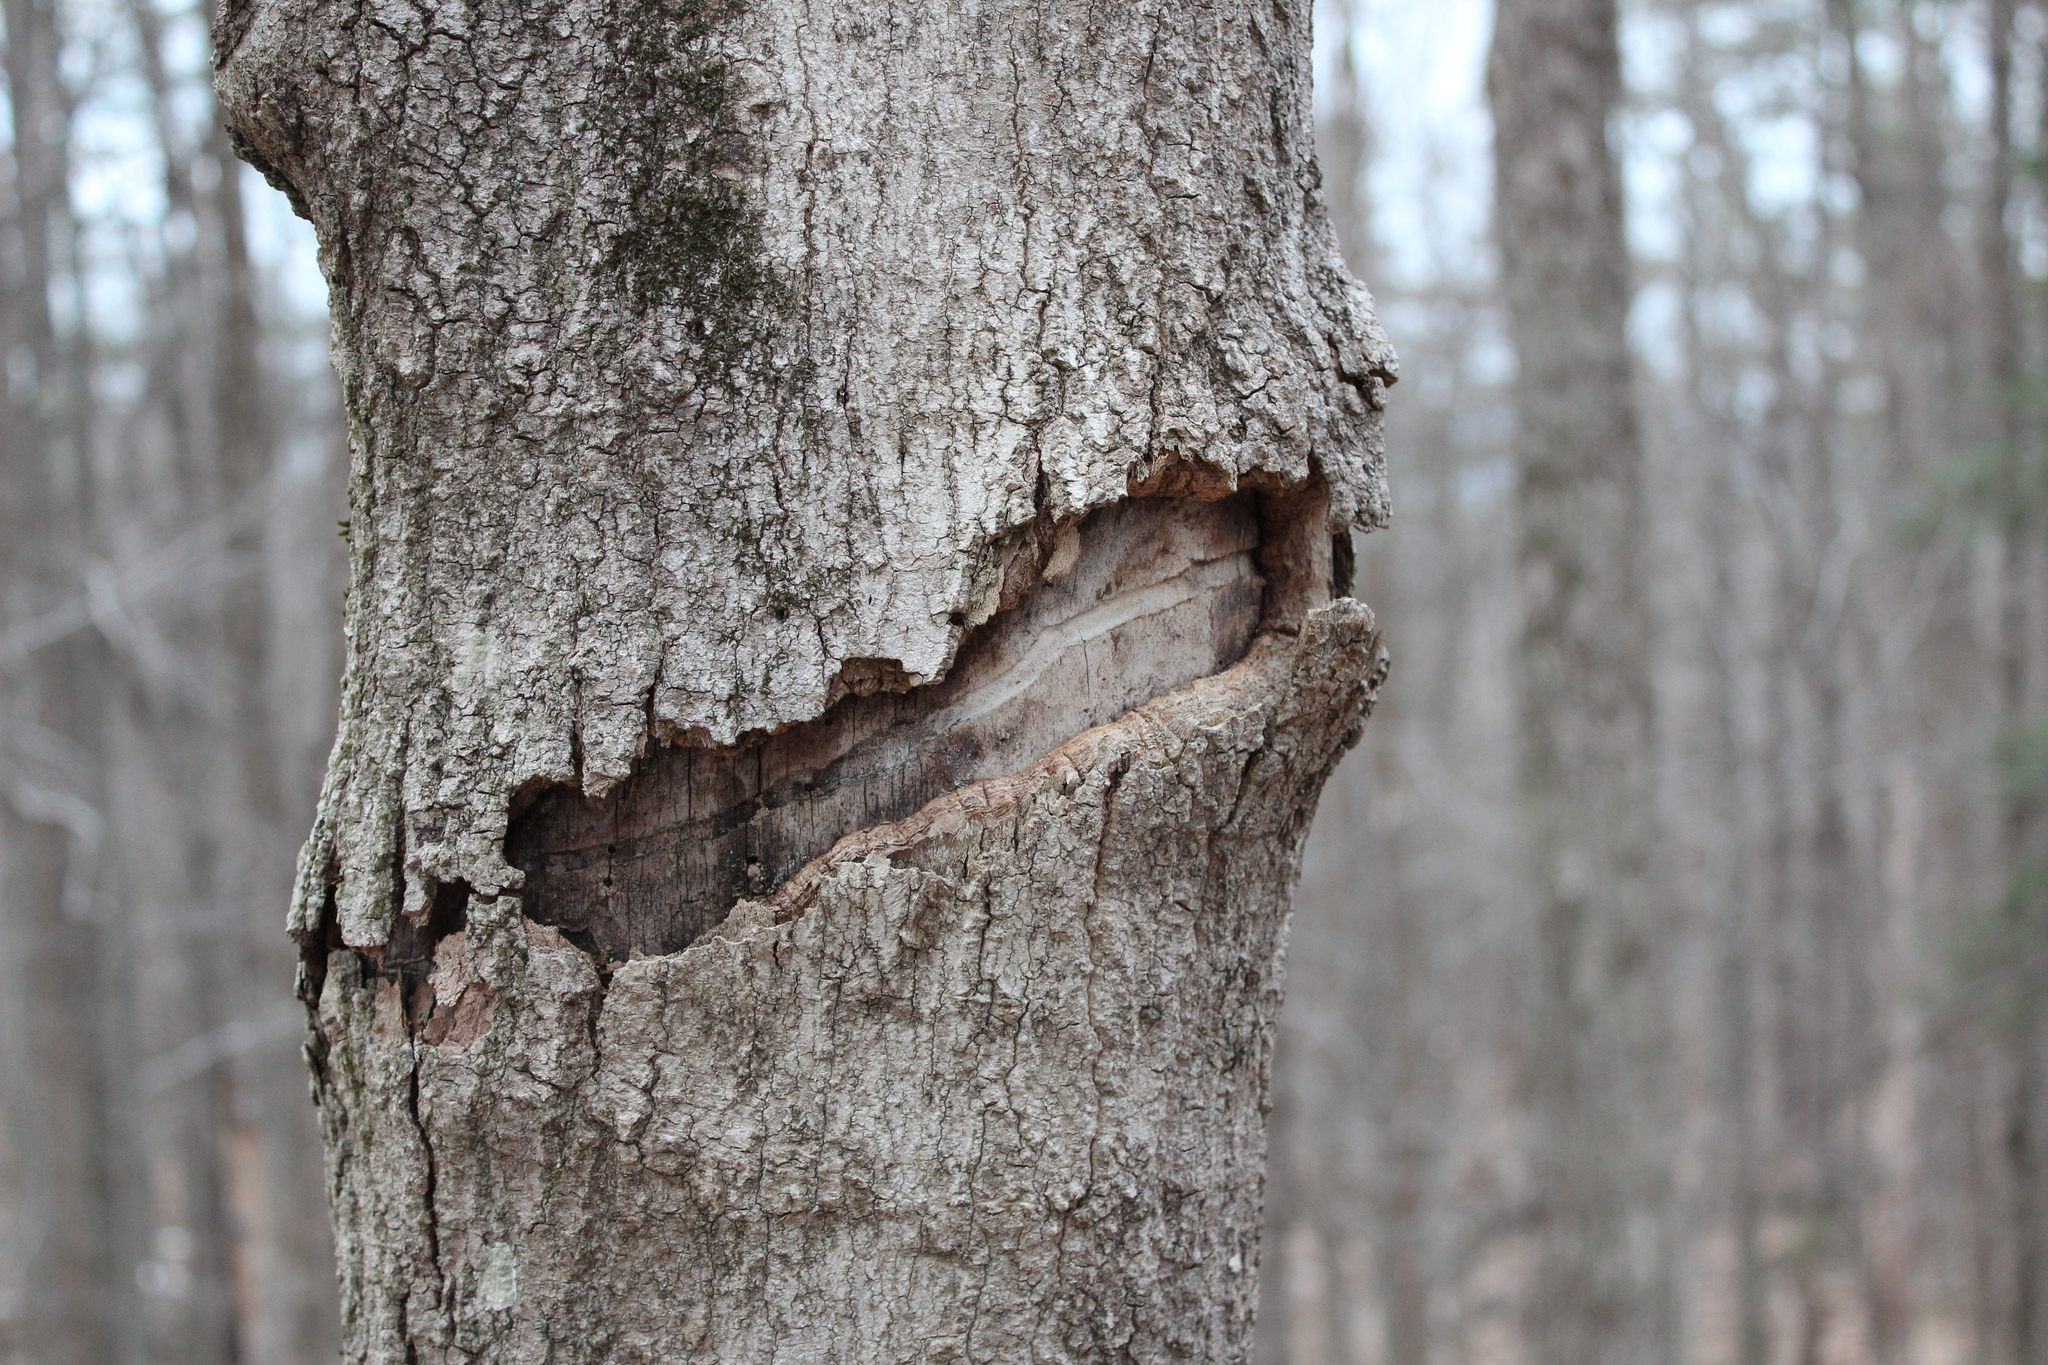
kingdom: Animalia
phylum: Arthropoda
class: Insecta
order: Coleoptera
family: Cerambycidae
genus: Glycobius
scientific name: Glycobius speciosus
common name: Sugar maple borer
